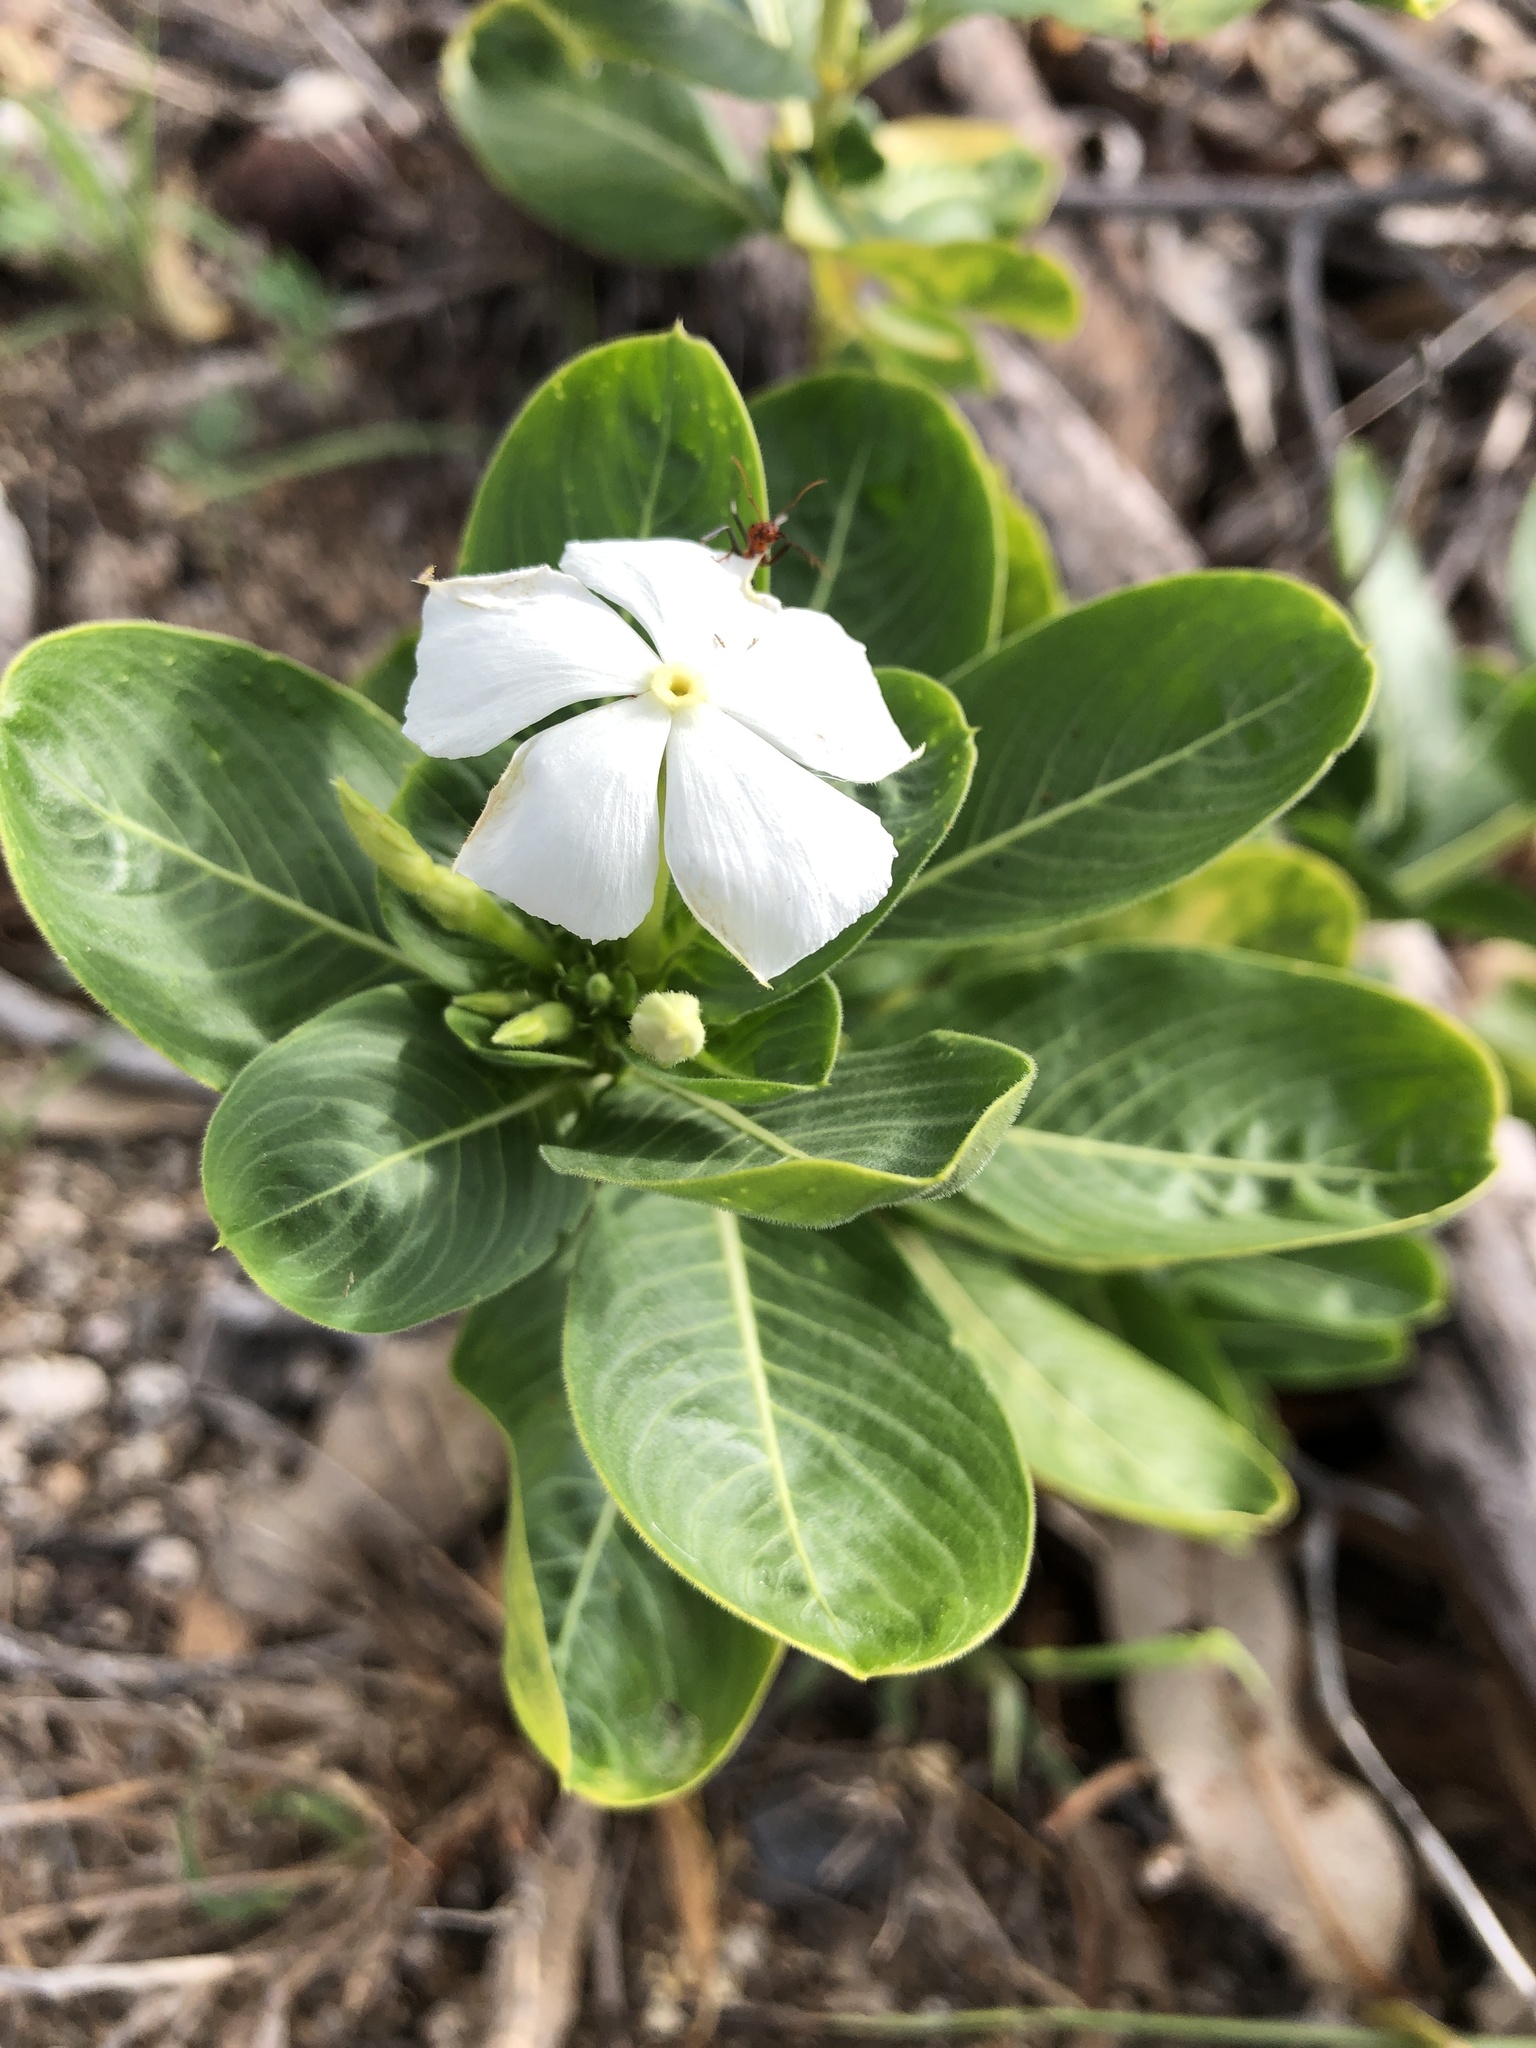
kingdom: Plantae
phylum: Tracheophyta
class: Magnoliopsida
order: Gentianales
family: Apocynaceae
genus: Catharanthus
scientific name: Catharanthus roseus
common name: Madagascar periwinkle
